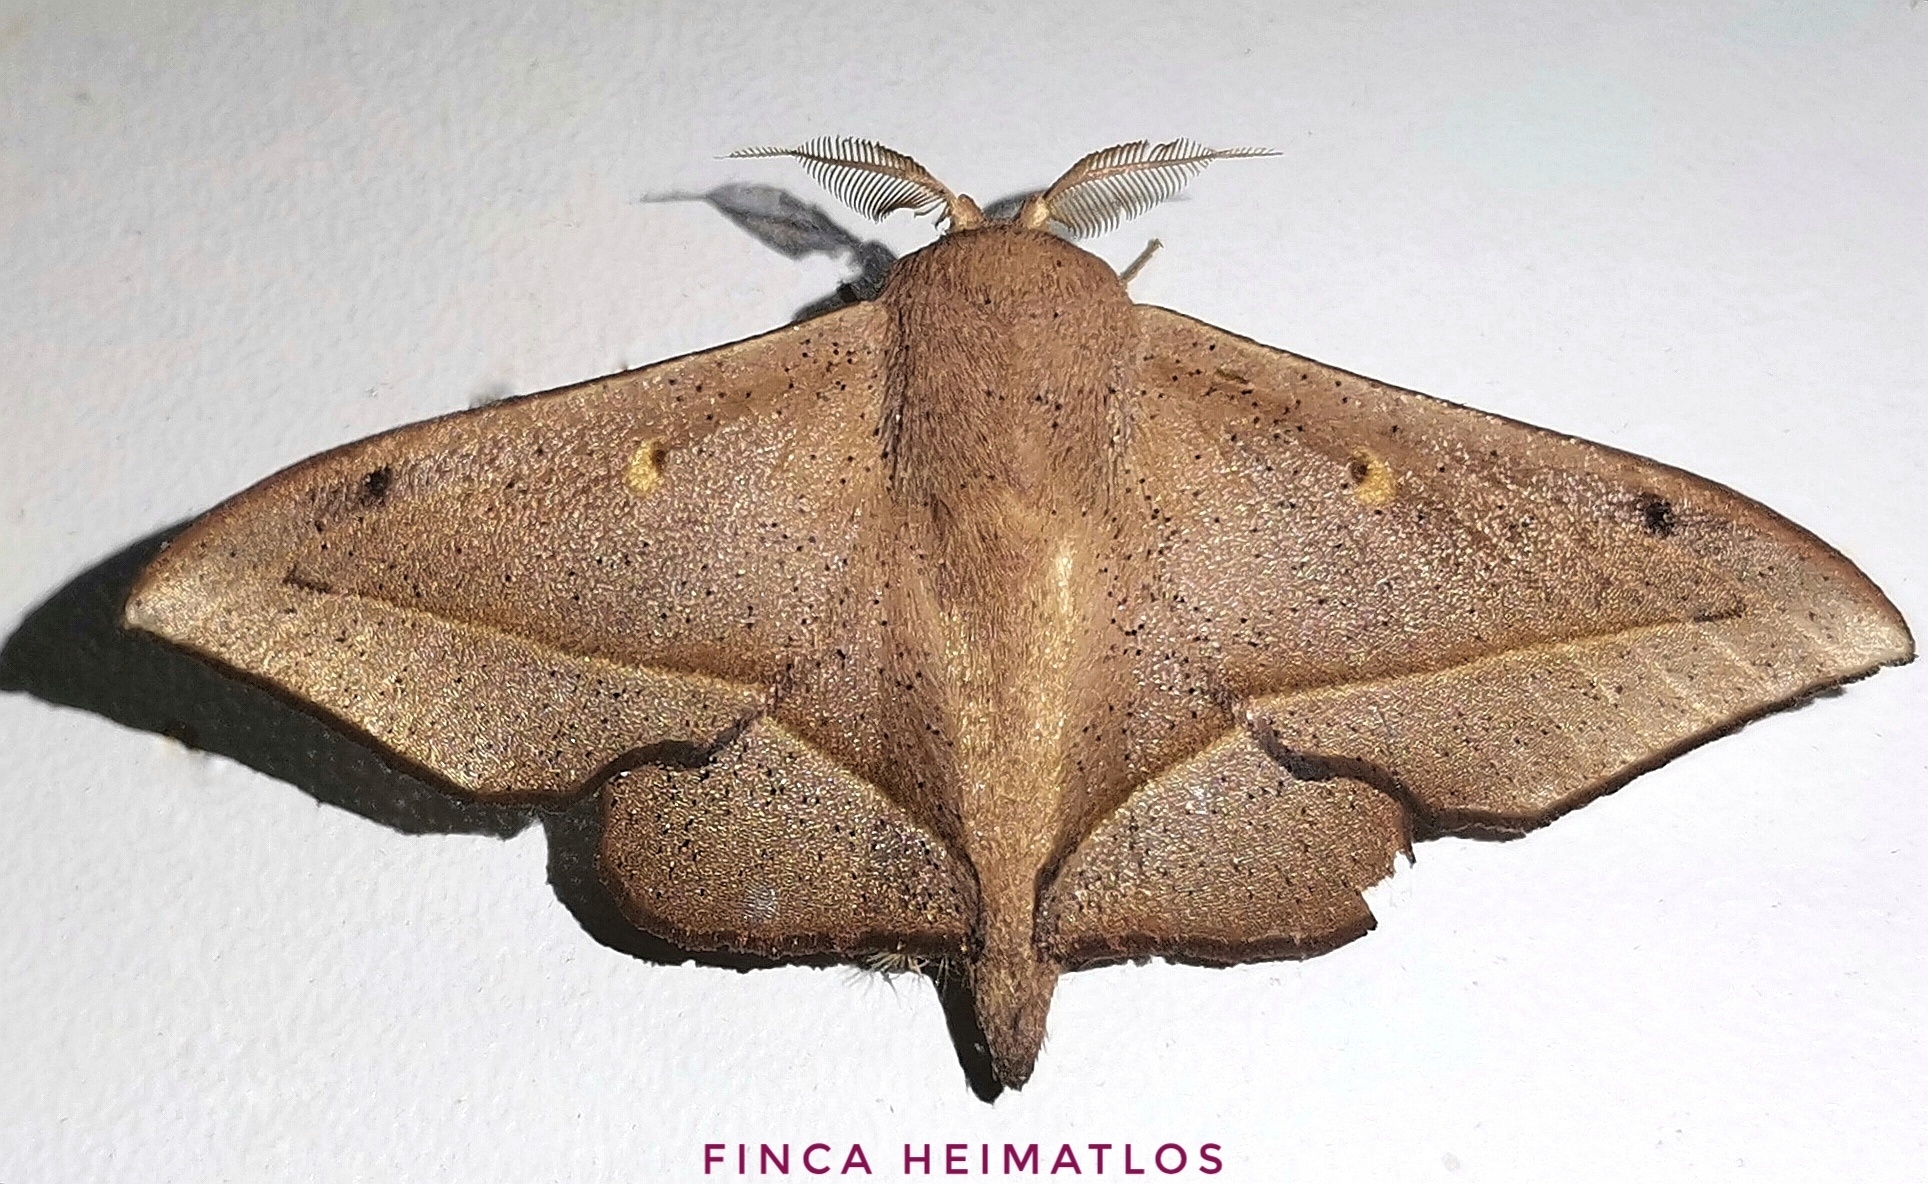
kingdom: Animalia
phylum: Arthropoda
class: Insecta
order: Lepidoptera
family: Mimallonidae
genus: Druentica
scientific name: Druentica partha
